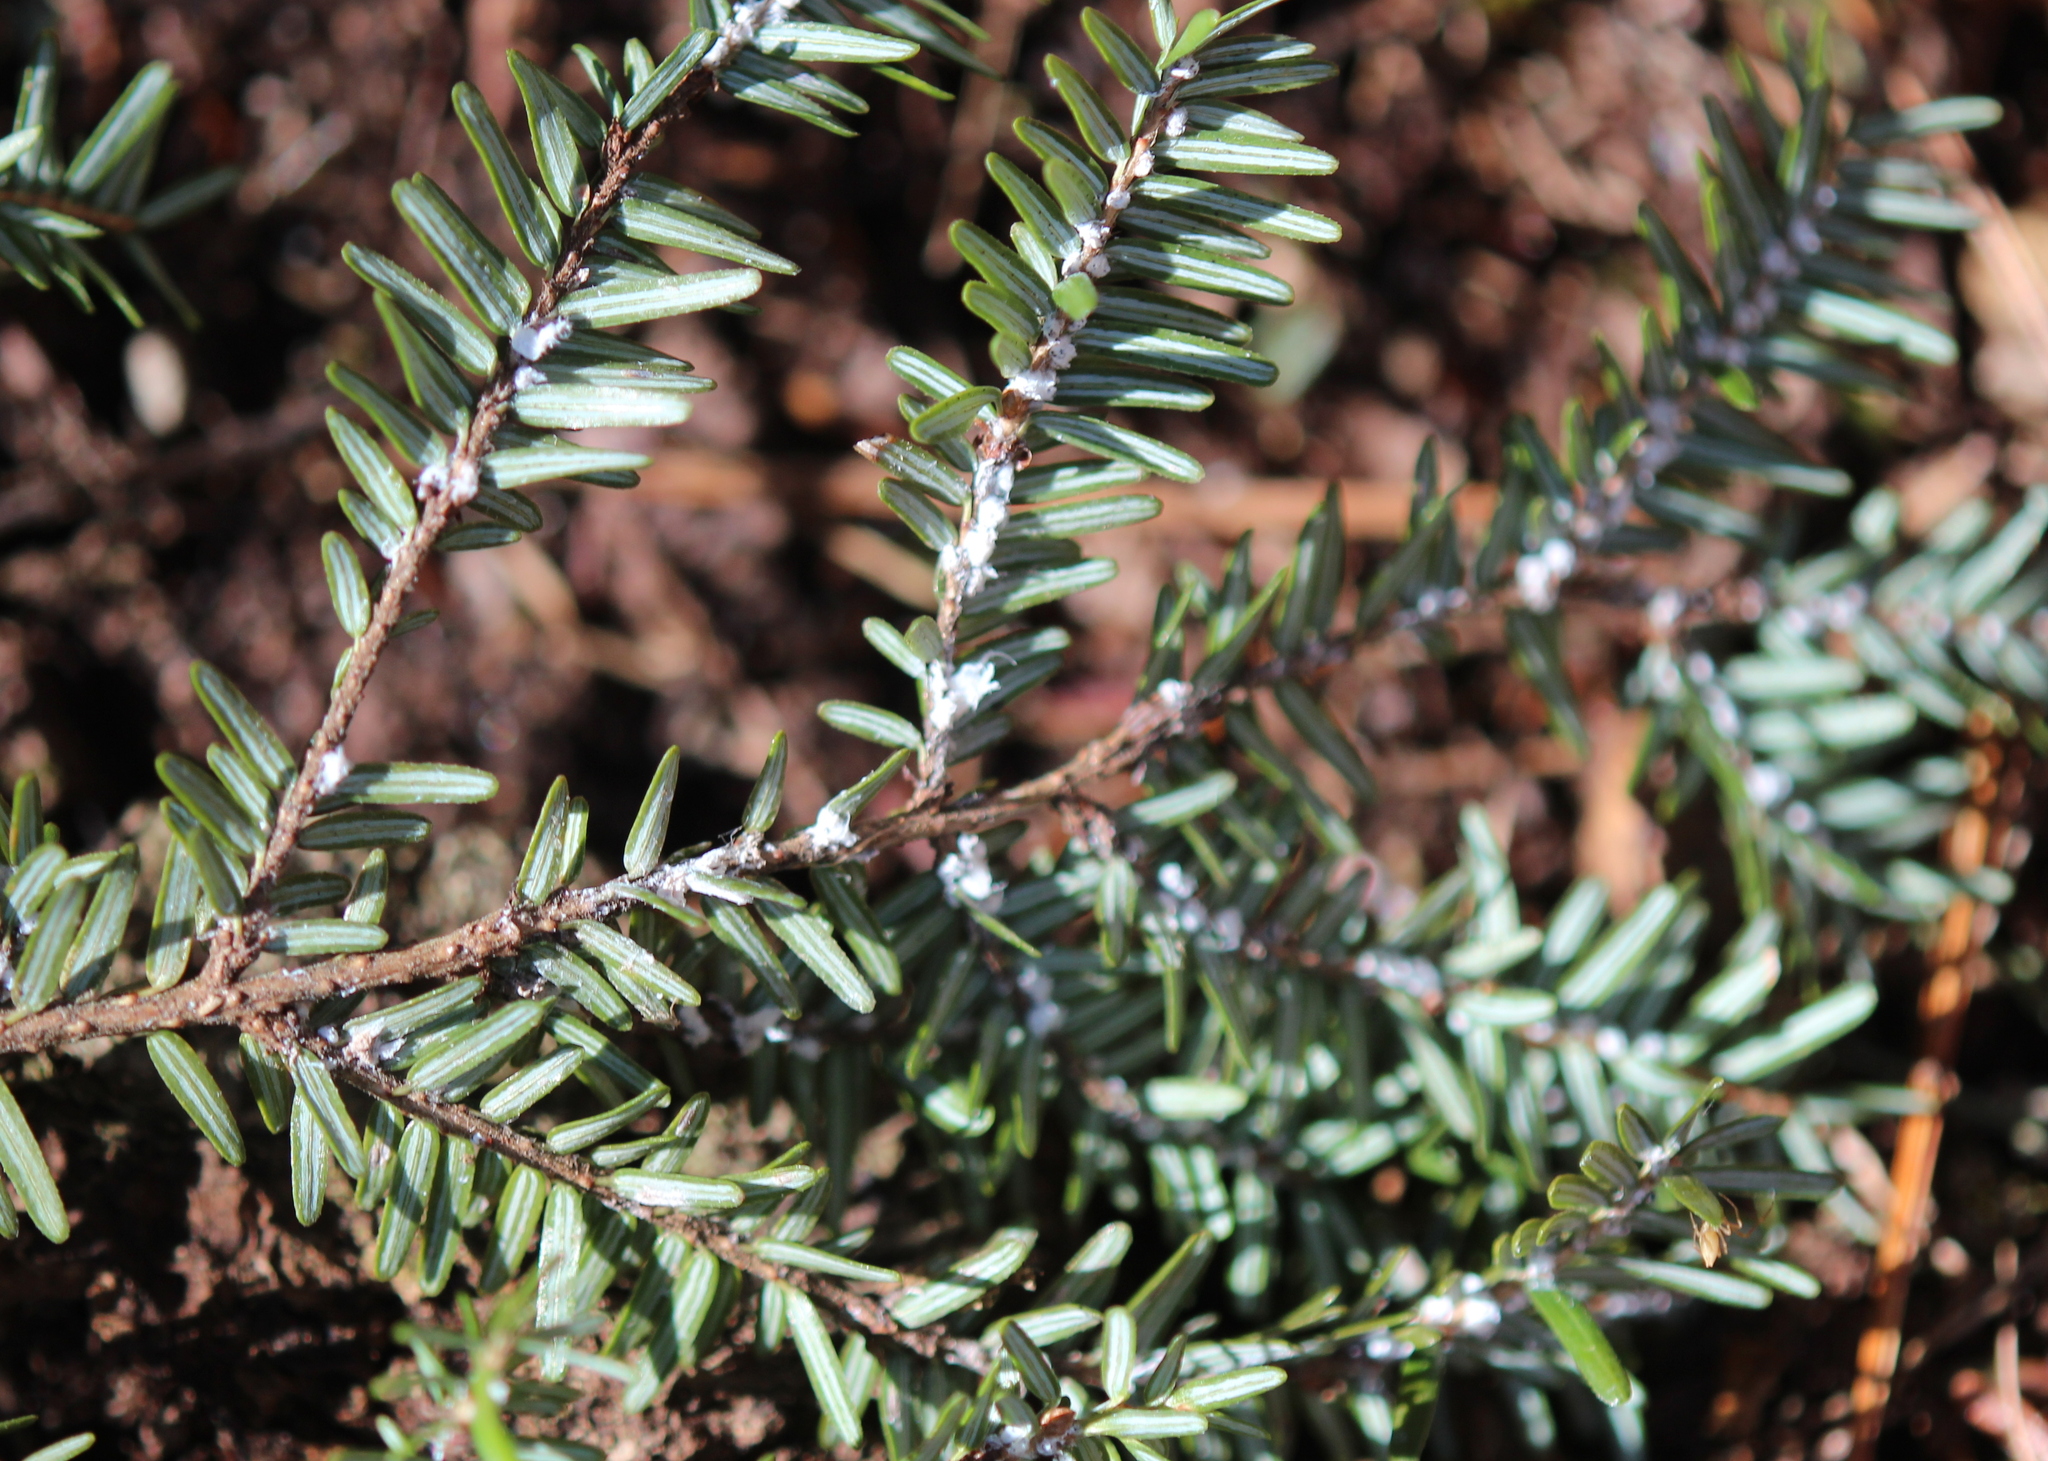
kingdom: Plantae
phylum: Tracheophyta
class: Pinopsida
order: Pinales
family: Pinaceae
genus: Tsuga
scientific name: Tsuga canadensis
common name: Eastern hemlock
